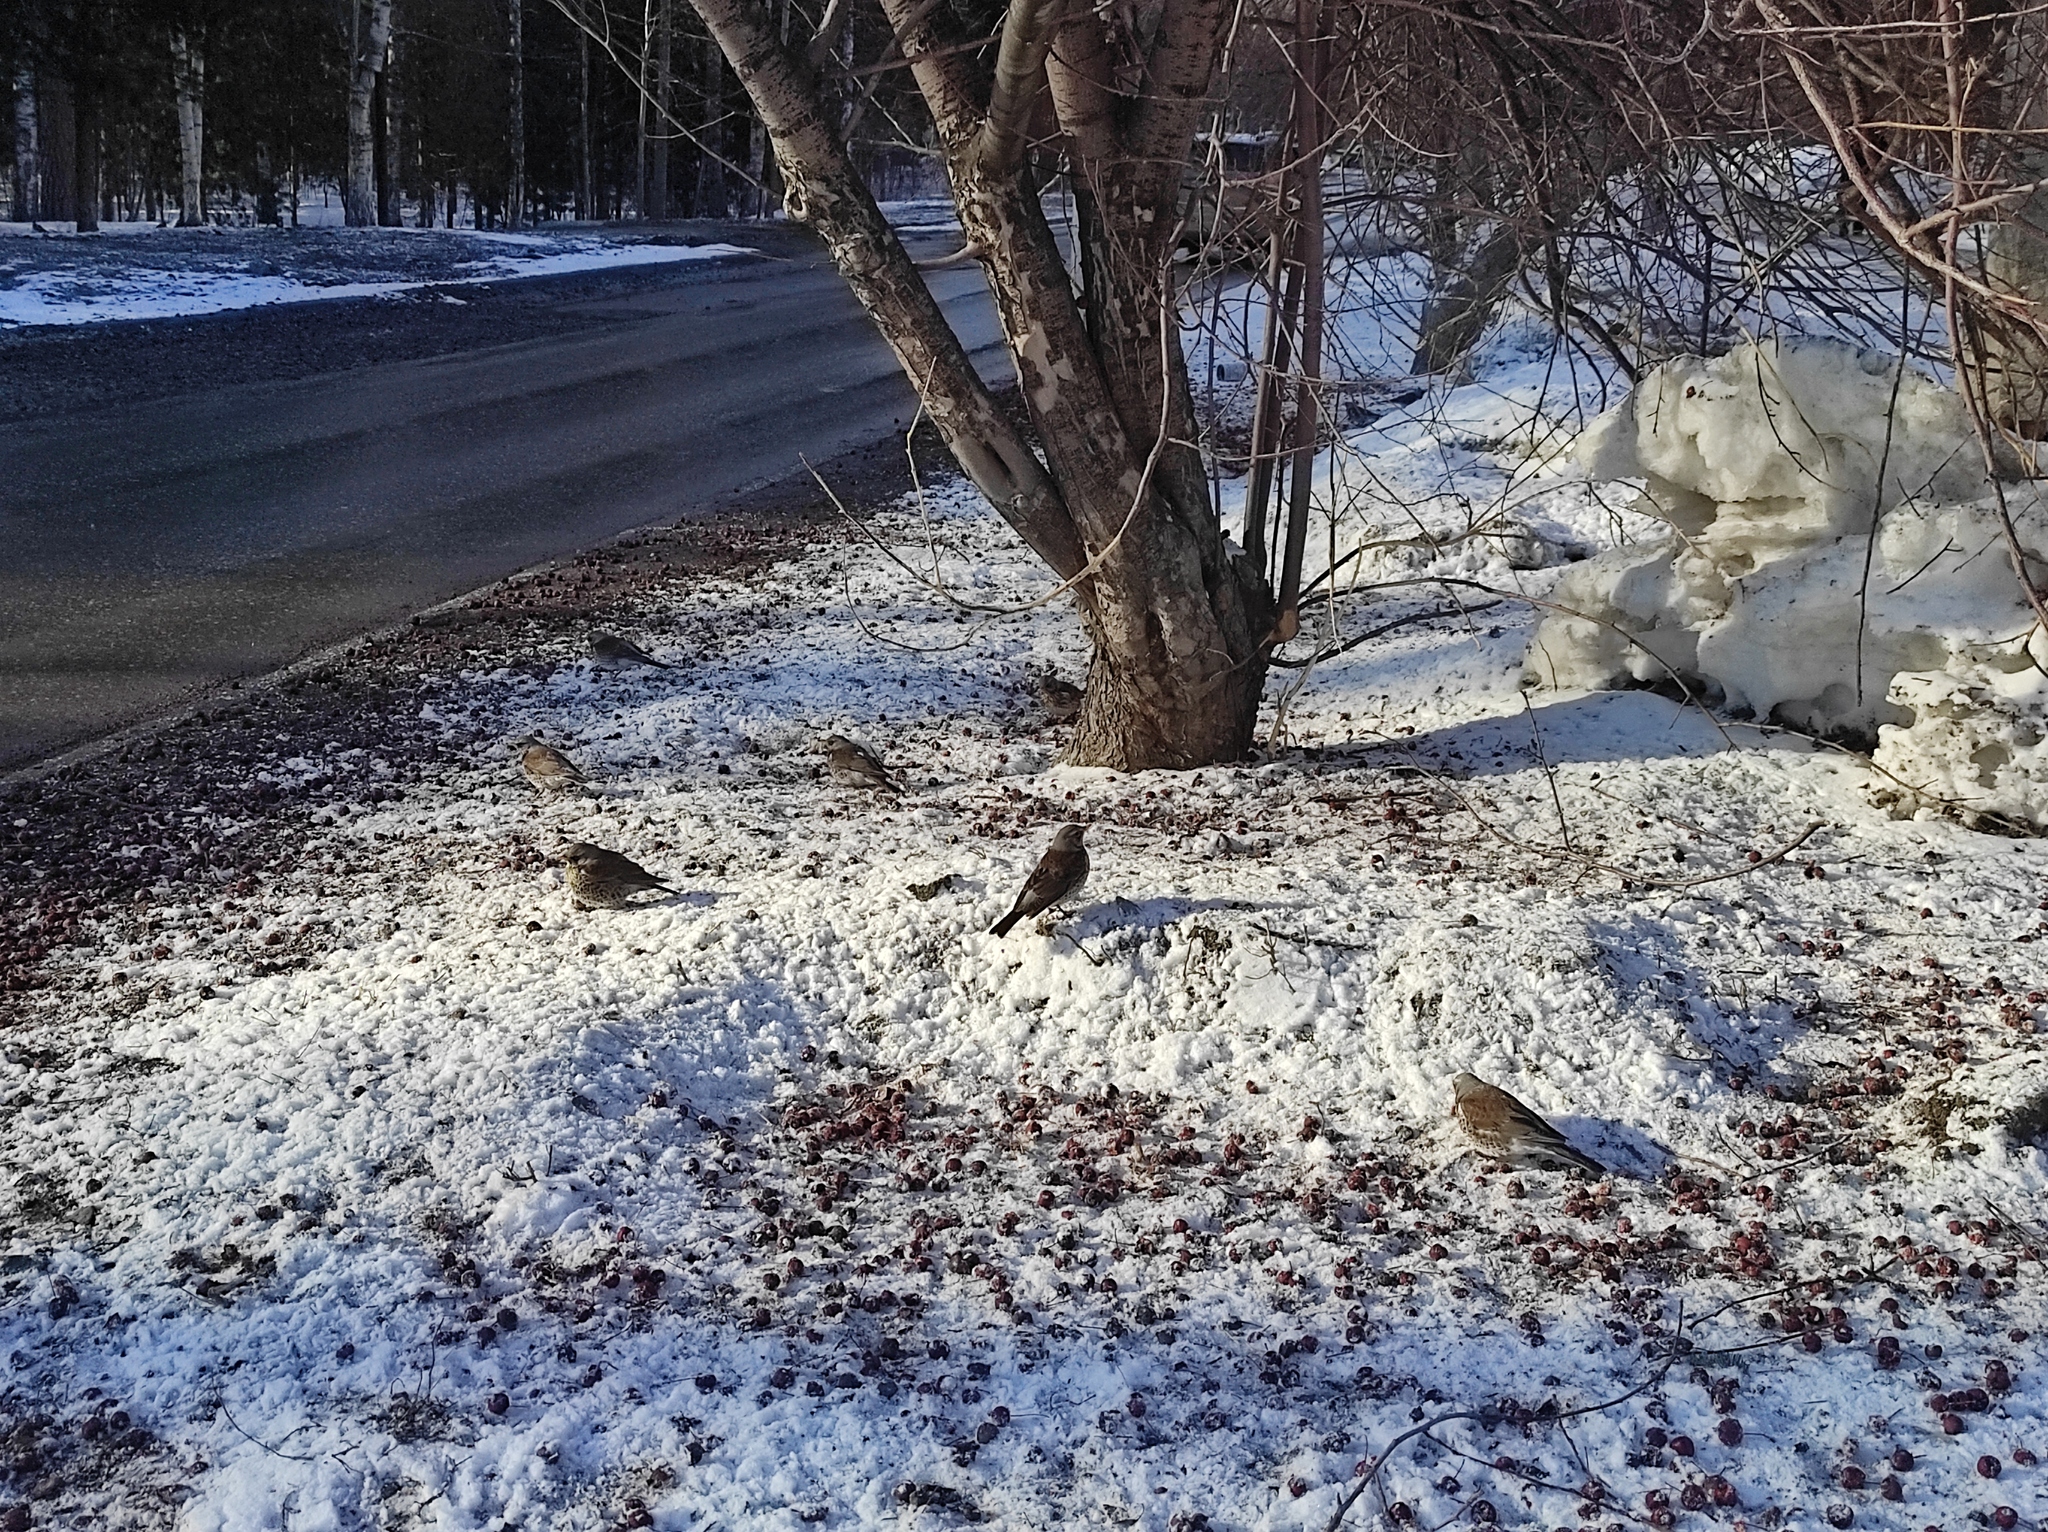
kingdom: Animalia
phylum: Chordata
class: Aves
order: Passeriformes
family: Turdidae
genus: Turdus
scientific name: Turdus pilaris
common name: Fieldfare
